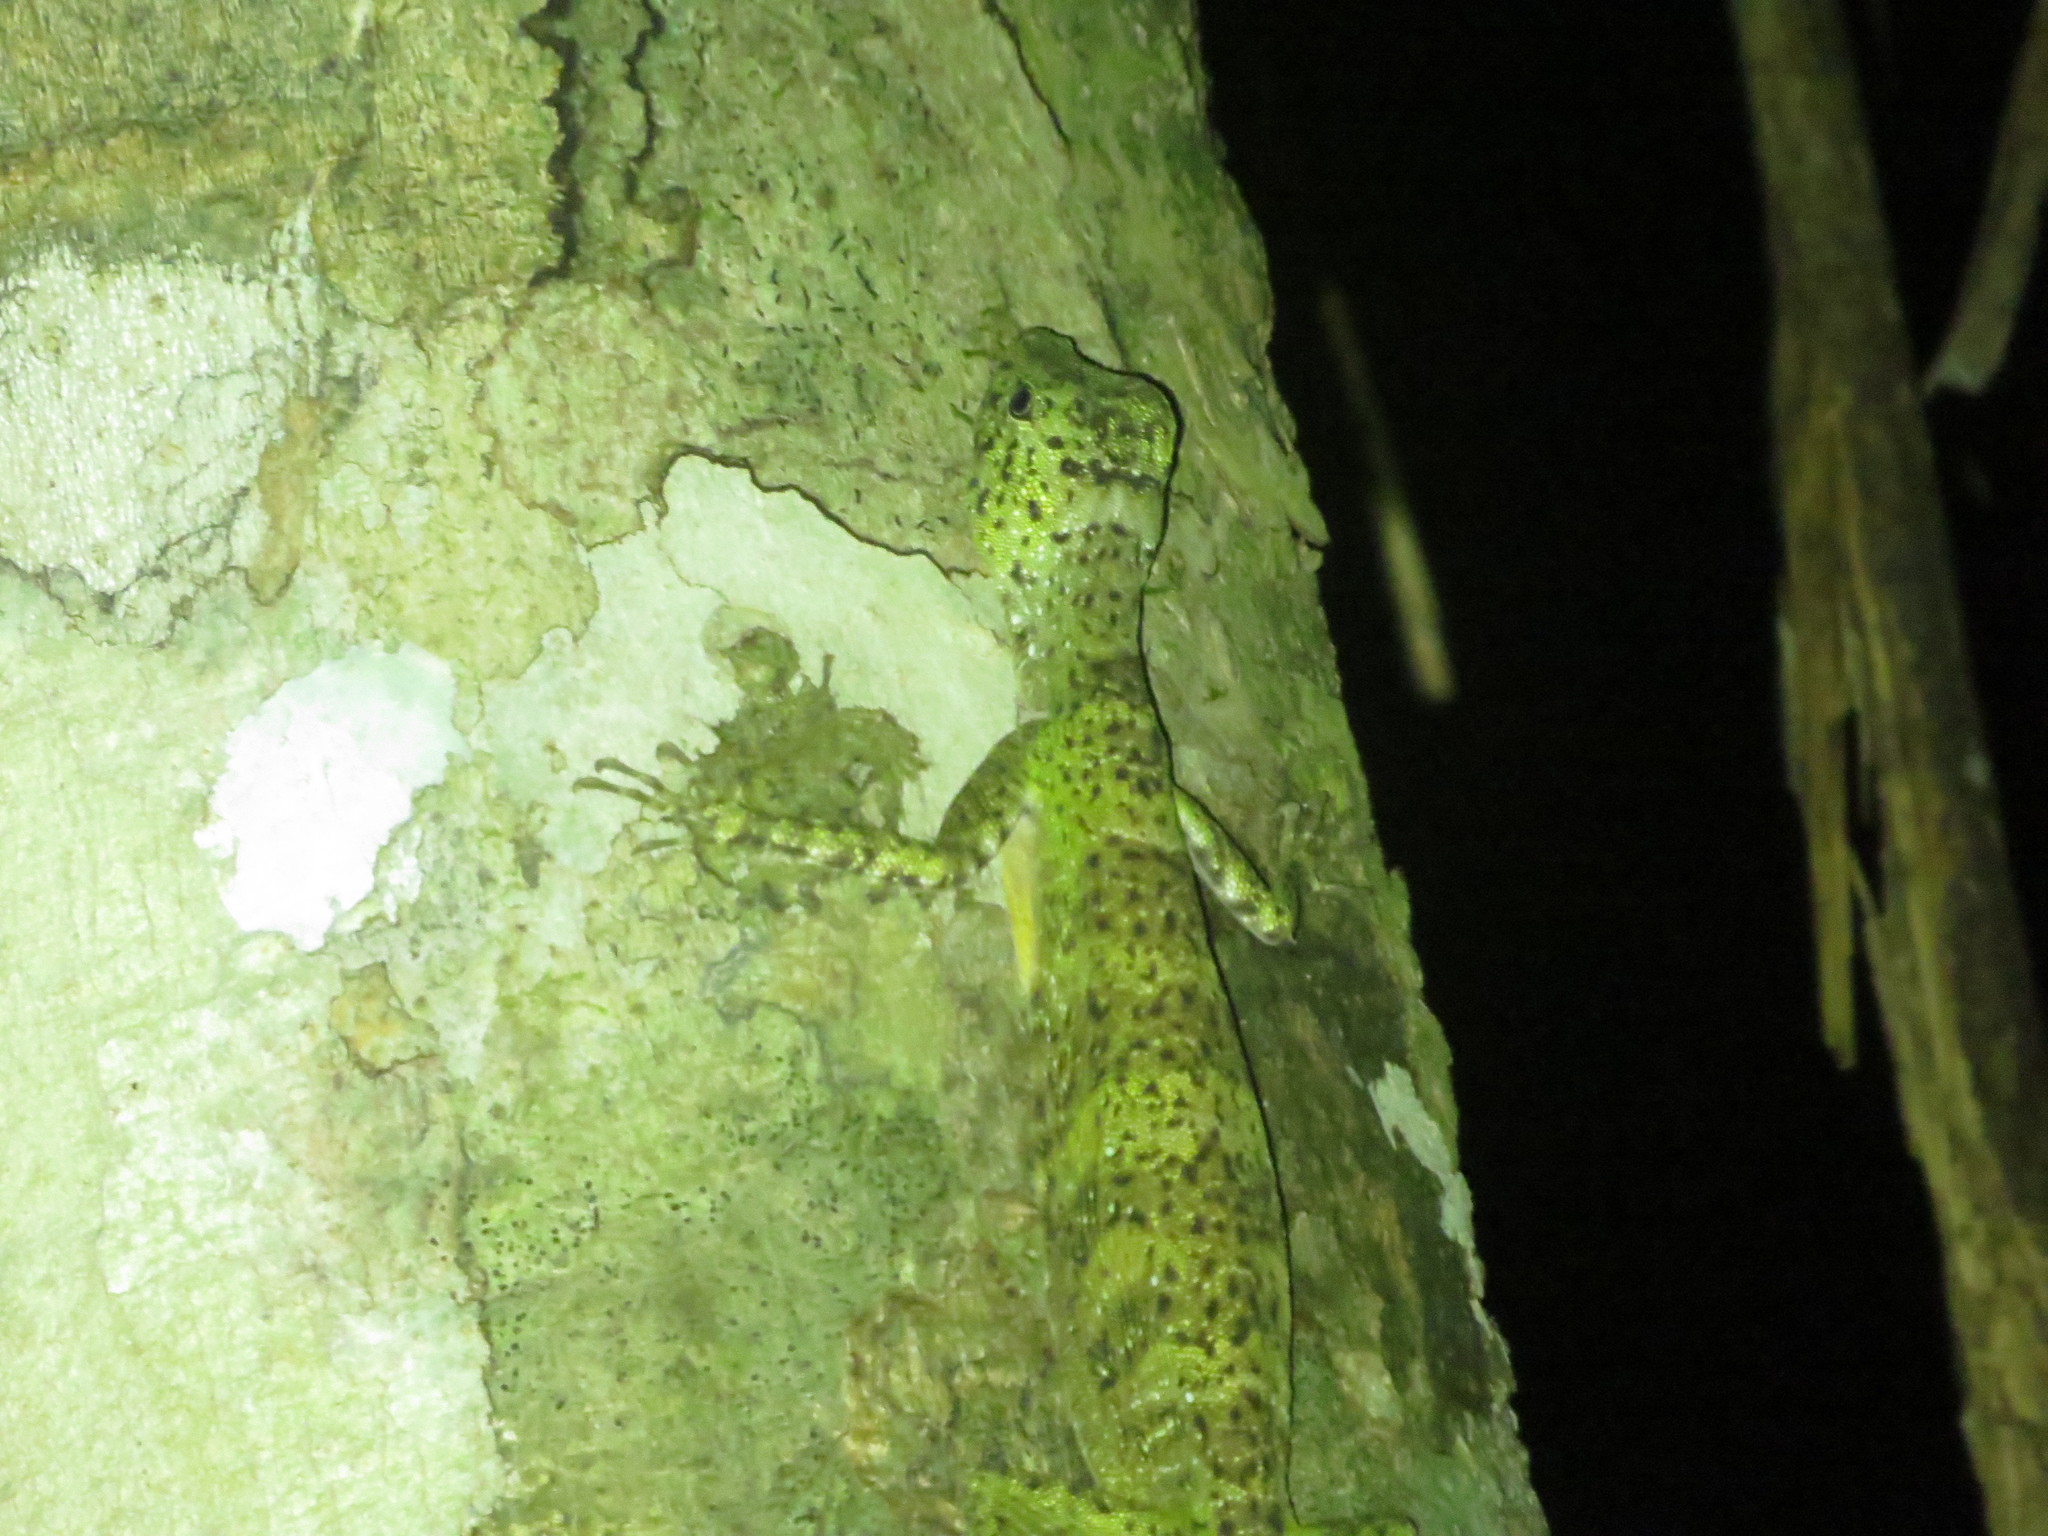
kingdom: Animalia
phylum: Chordata
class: Squamata
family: Agamidae
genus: Draco
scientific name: Draco quinquefasciatus
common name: Five-lined flying dragon
